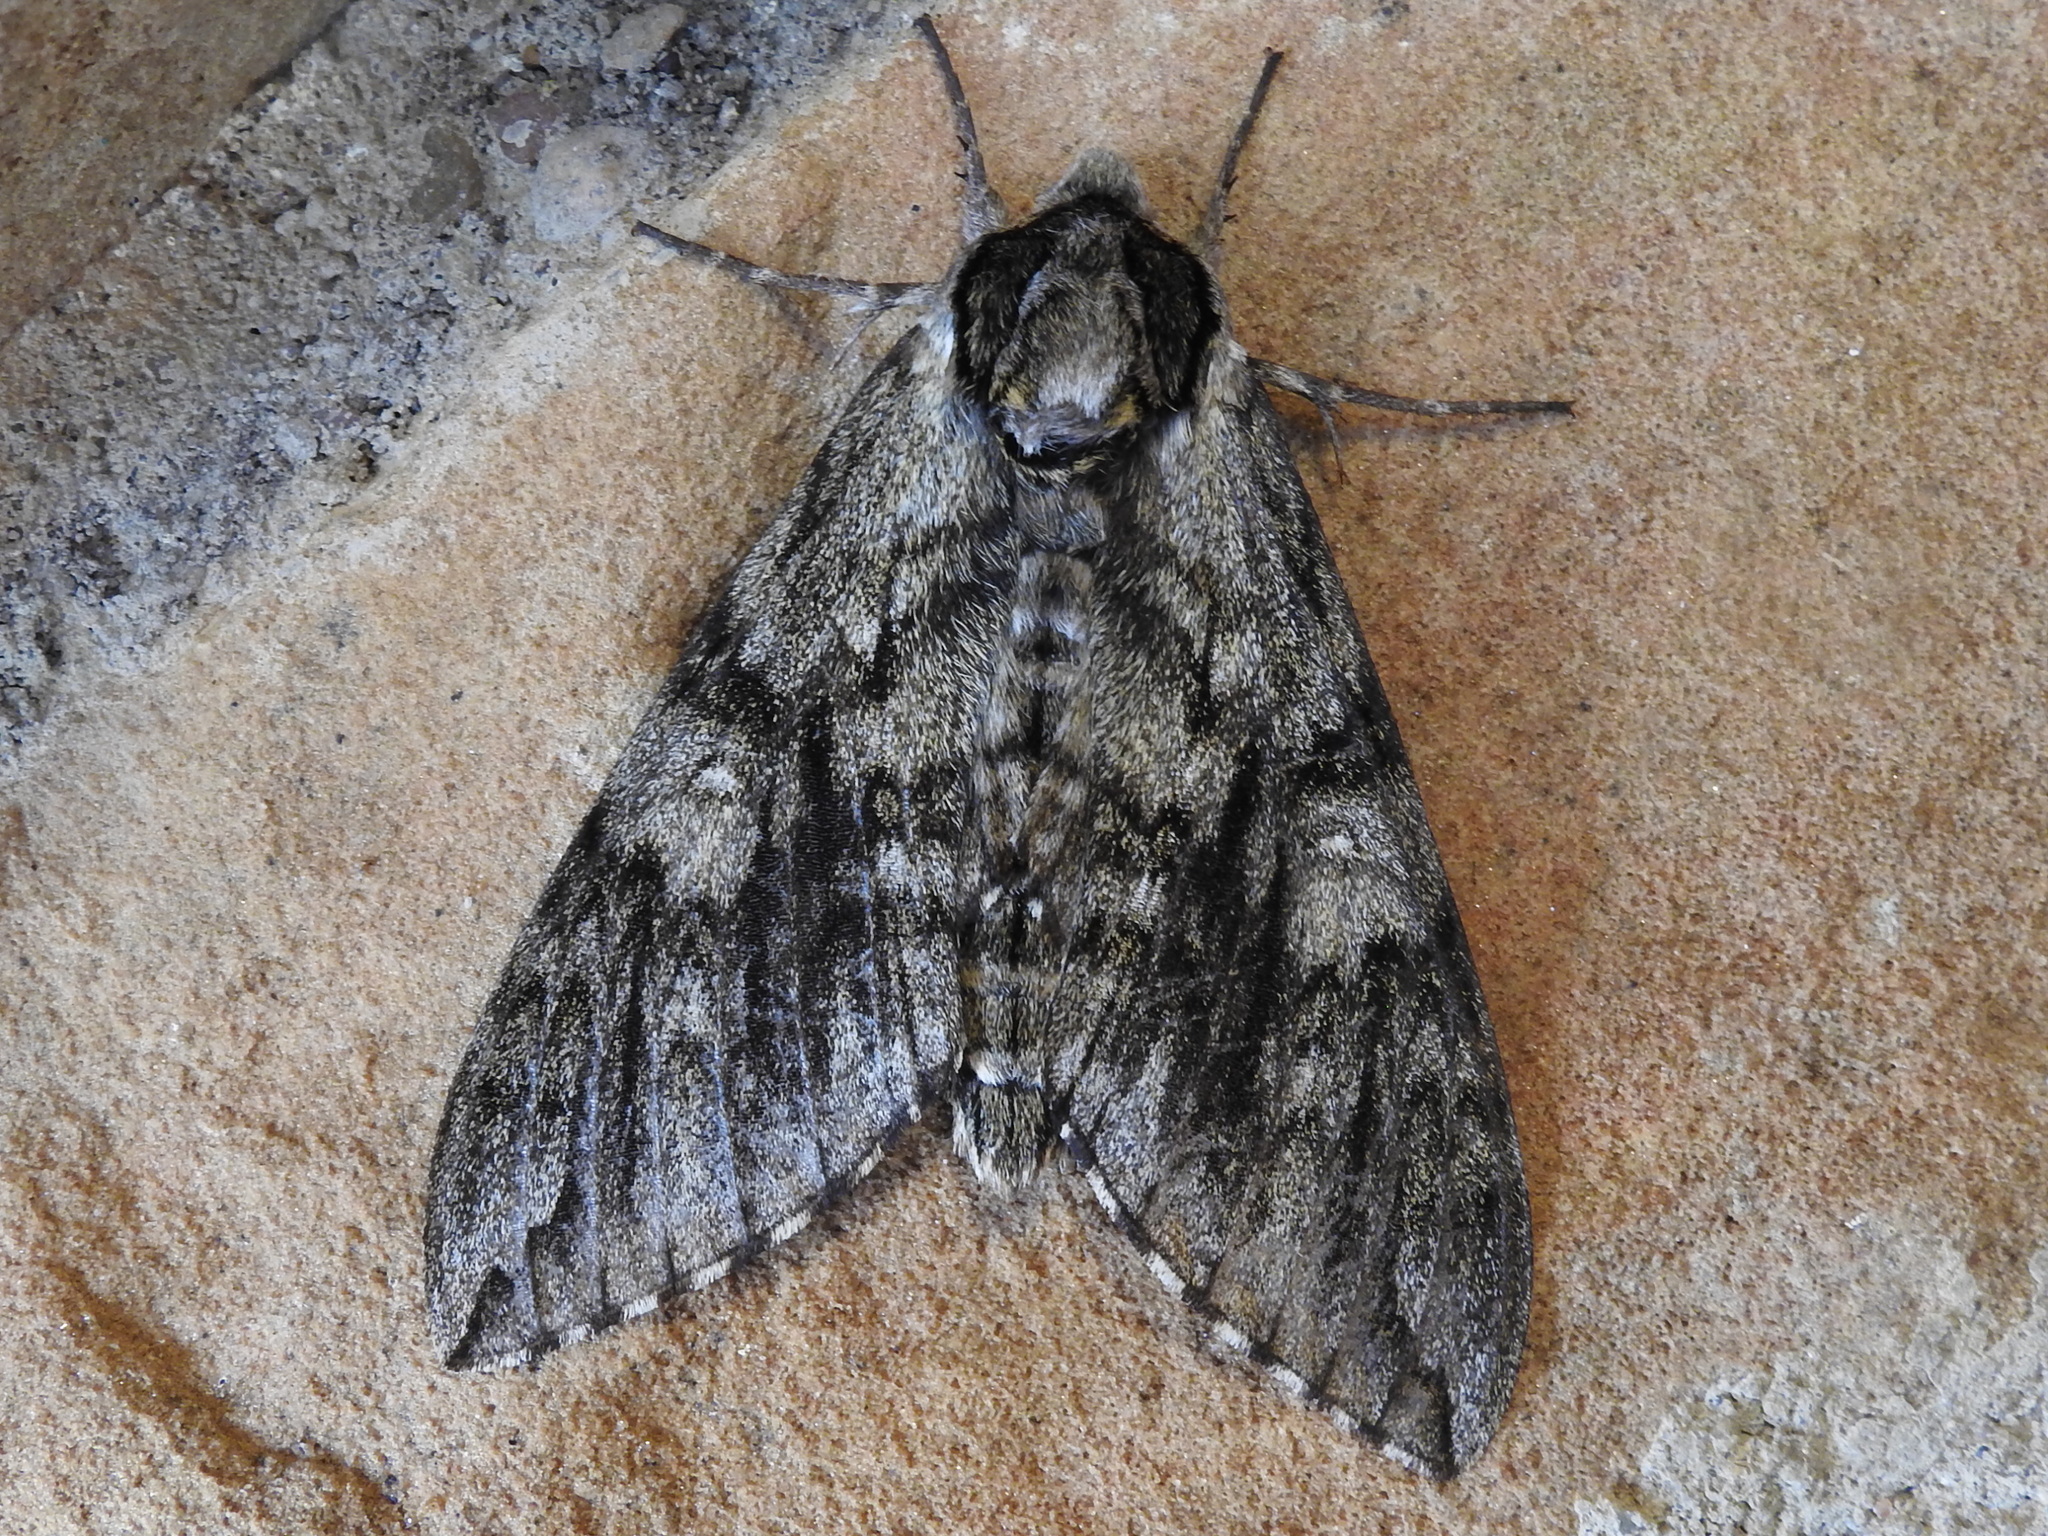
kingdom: Animalia
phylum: Arthropoda
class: Insecta
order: Lepidoptera
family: Sphingidae
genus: Ceratomia
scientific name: Ceratomia undulosa
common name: Waved sphinx
